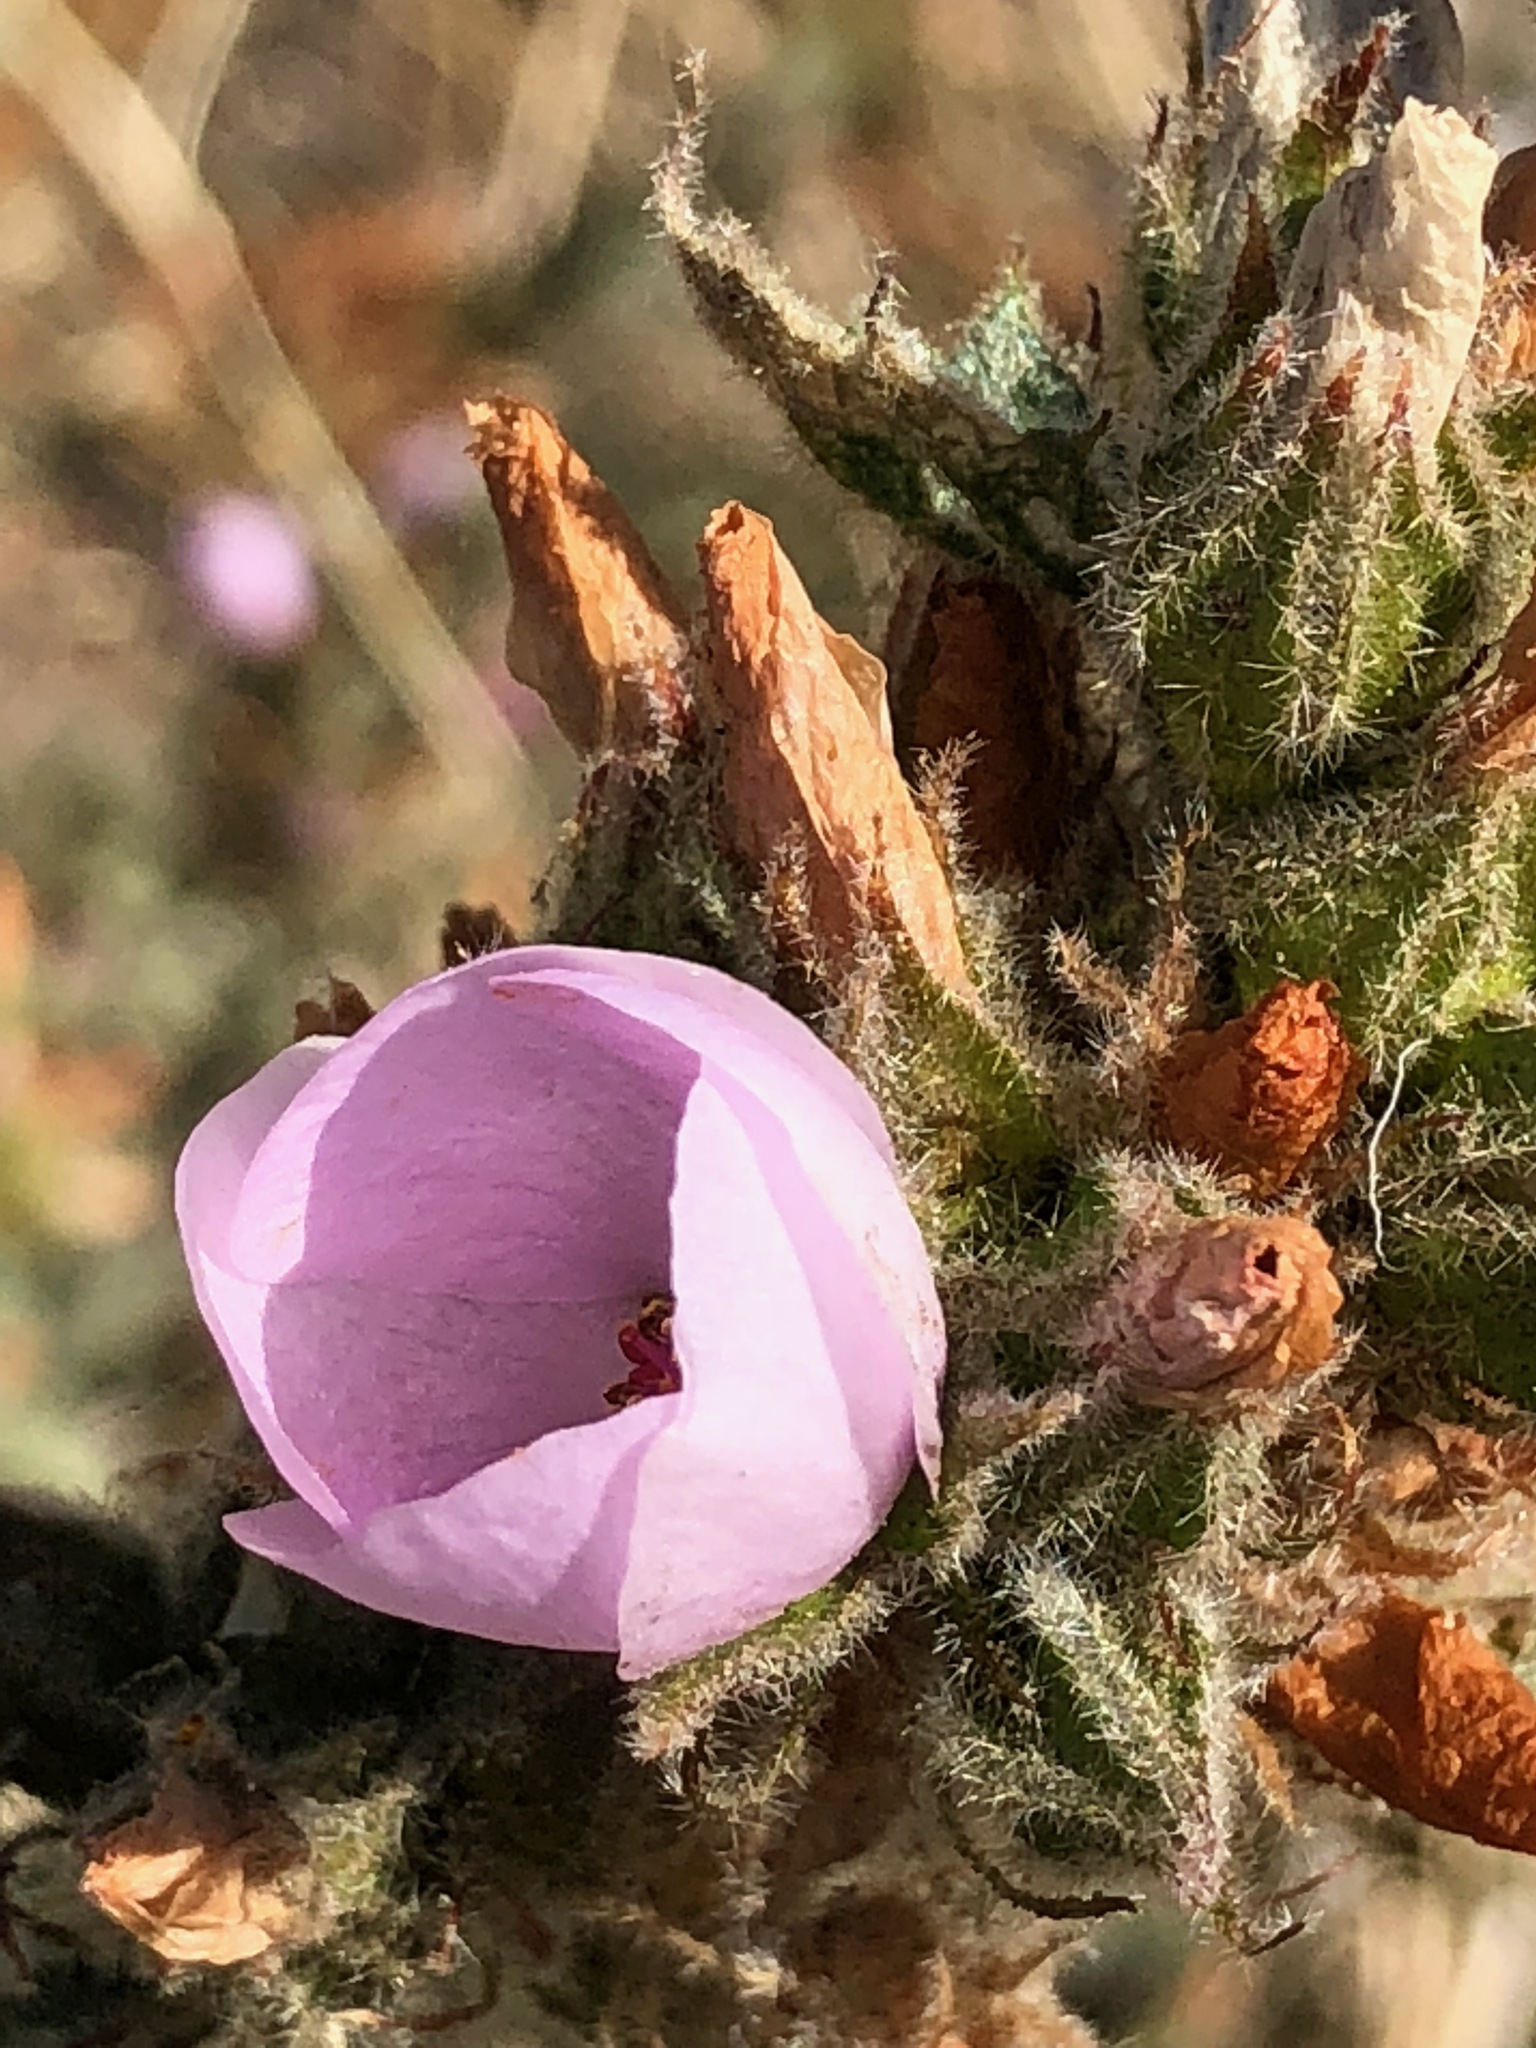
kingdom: Plantae
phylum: Tracheophyta
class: Magnoliopsida
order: Malvales
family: Malvaceae
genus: Malacothamnus
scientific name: Malacothamnus densiflorus
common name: Yellow-stem bush-mallow
